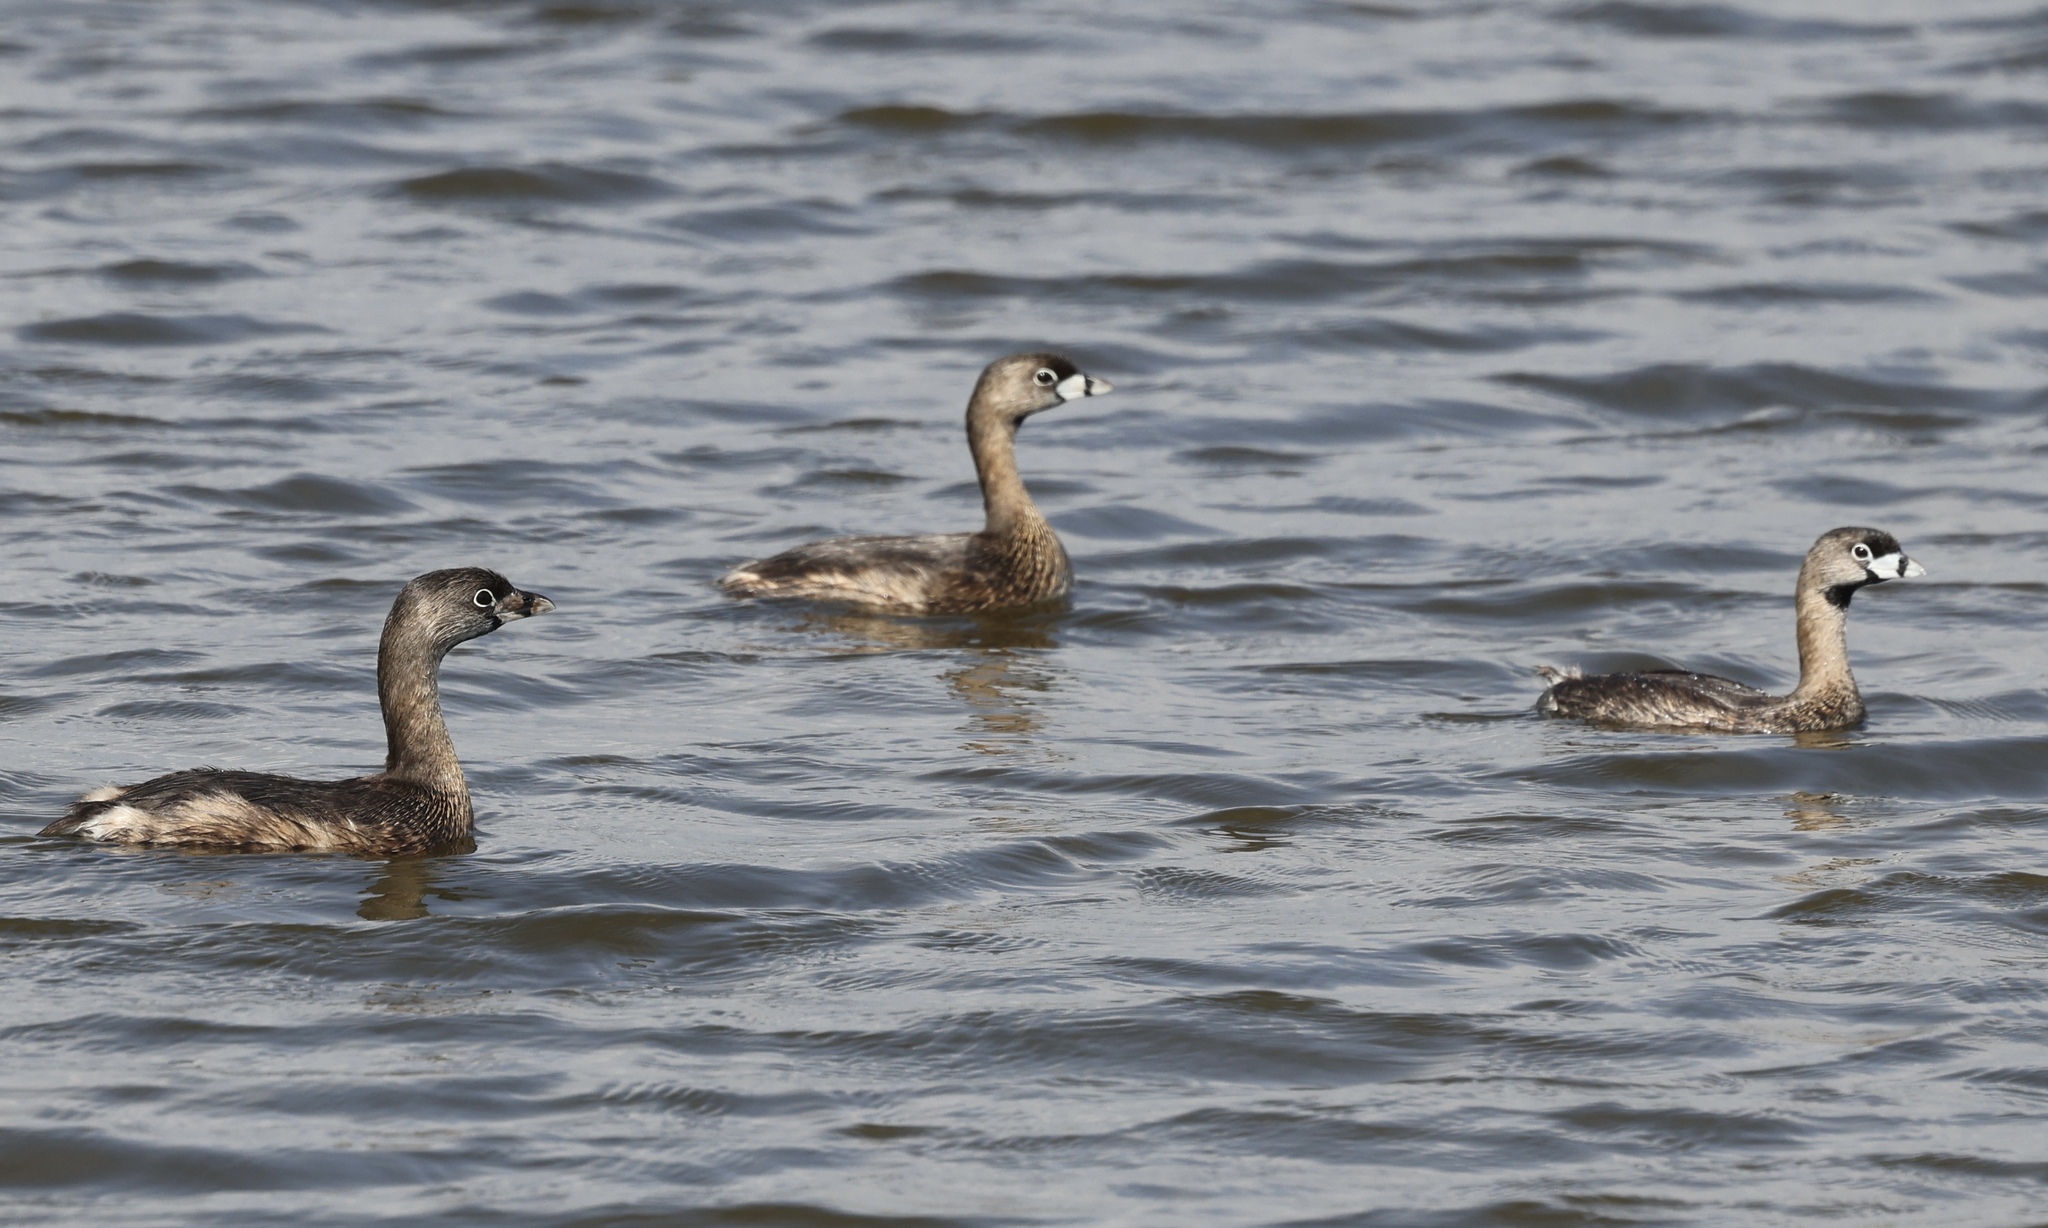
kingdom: Animalia
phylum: Chordata
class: Aves
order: Podicipediformes
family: Podicipedidae
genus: Podilymbus
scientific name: Podilymbus podiceps
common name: Pied-billed grebe
